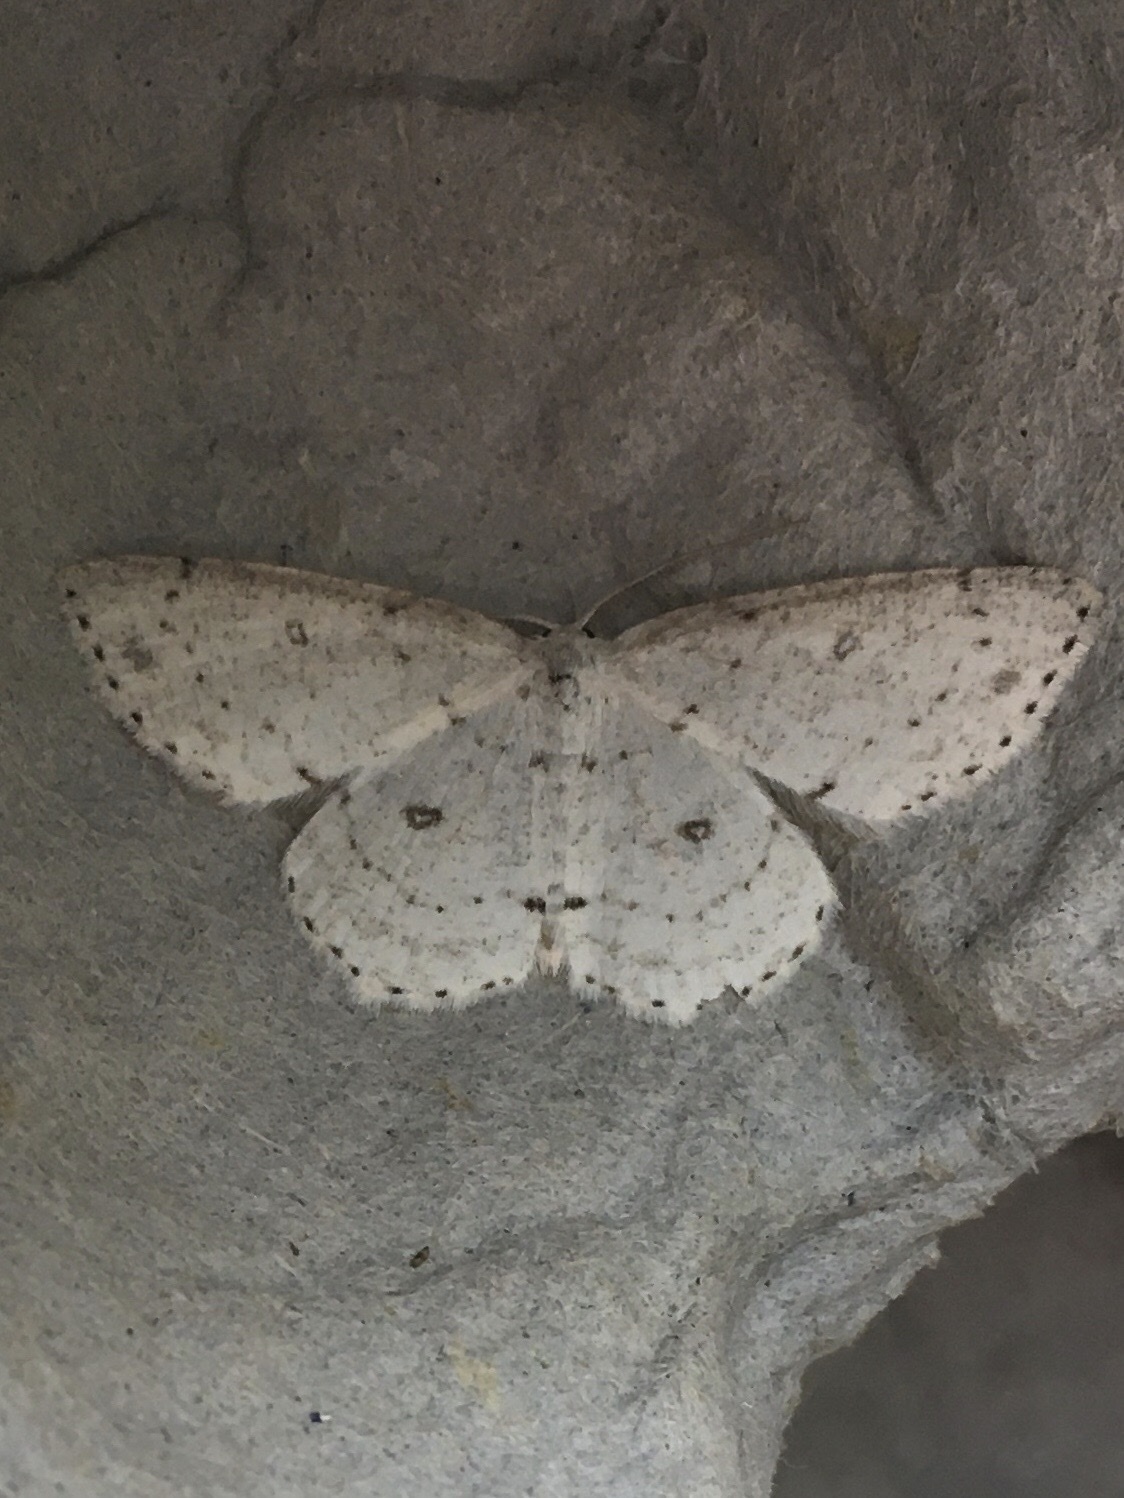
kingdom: Animalia
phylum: Arthropoda
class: Insecta
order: Lepidoptera
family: Geometridae
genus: Cyclophora
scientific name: Cyclophora pendulinaria
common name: Sweet fern geometer
